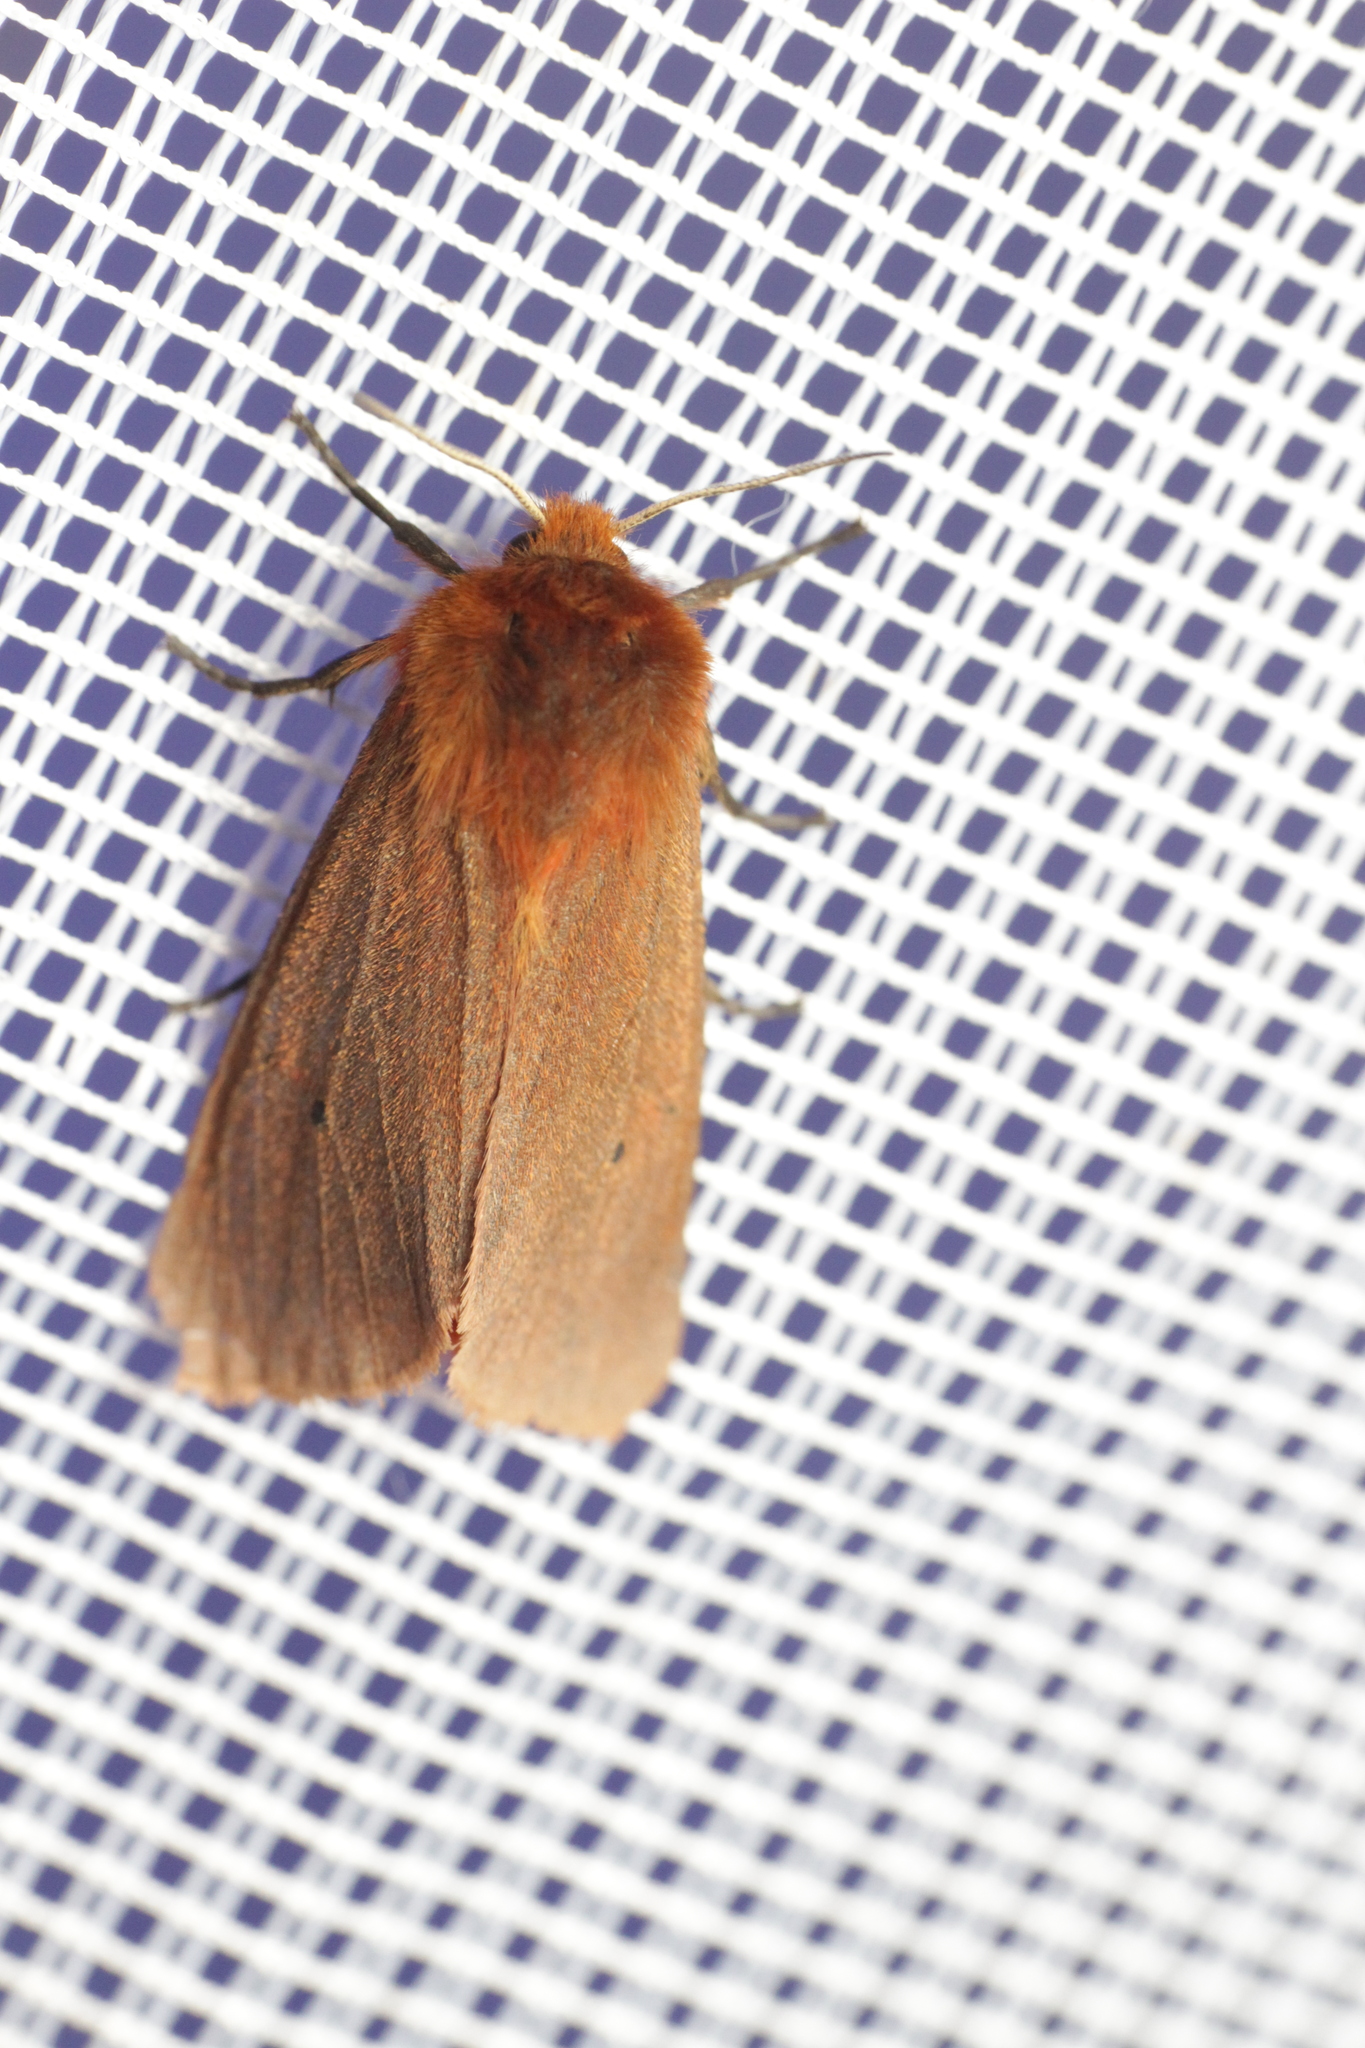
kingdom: Animalia
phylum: Arthropoda
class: Insecta
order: Lepidoptera
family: Erebidae
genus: Phragmatobia
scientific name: Phragmatobia fuliginosa
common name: Ruby tiger
